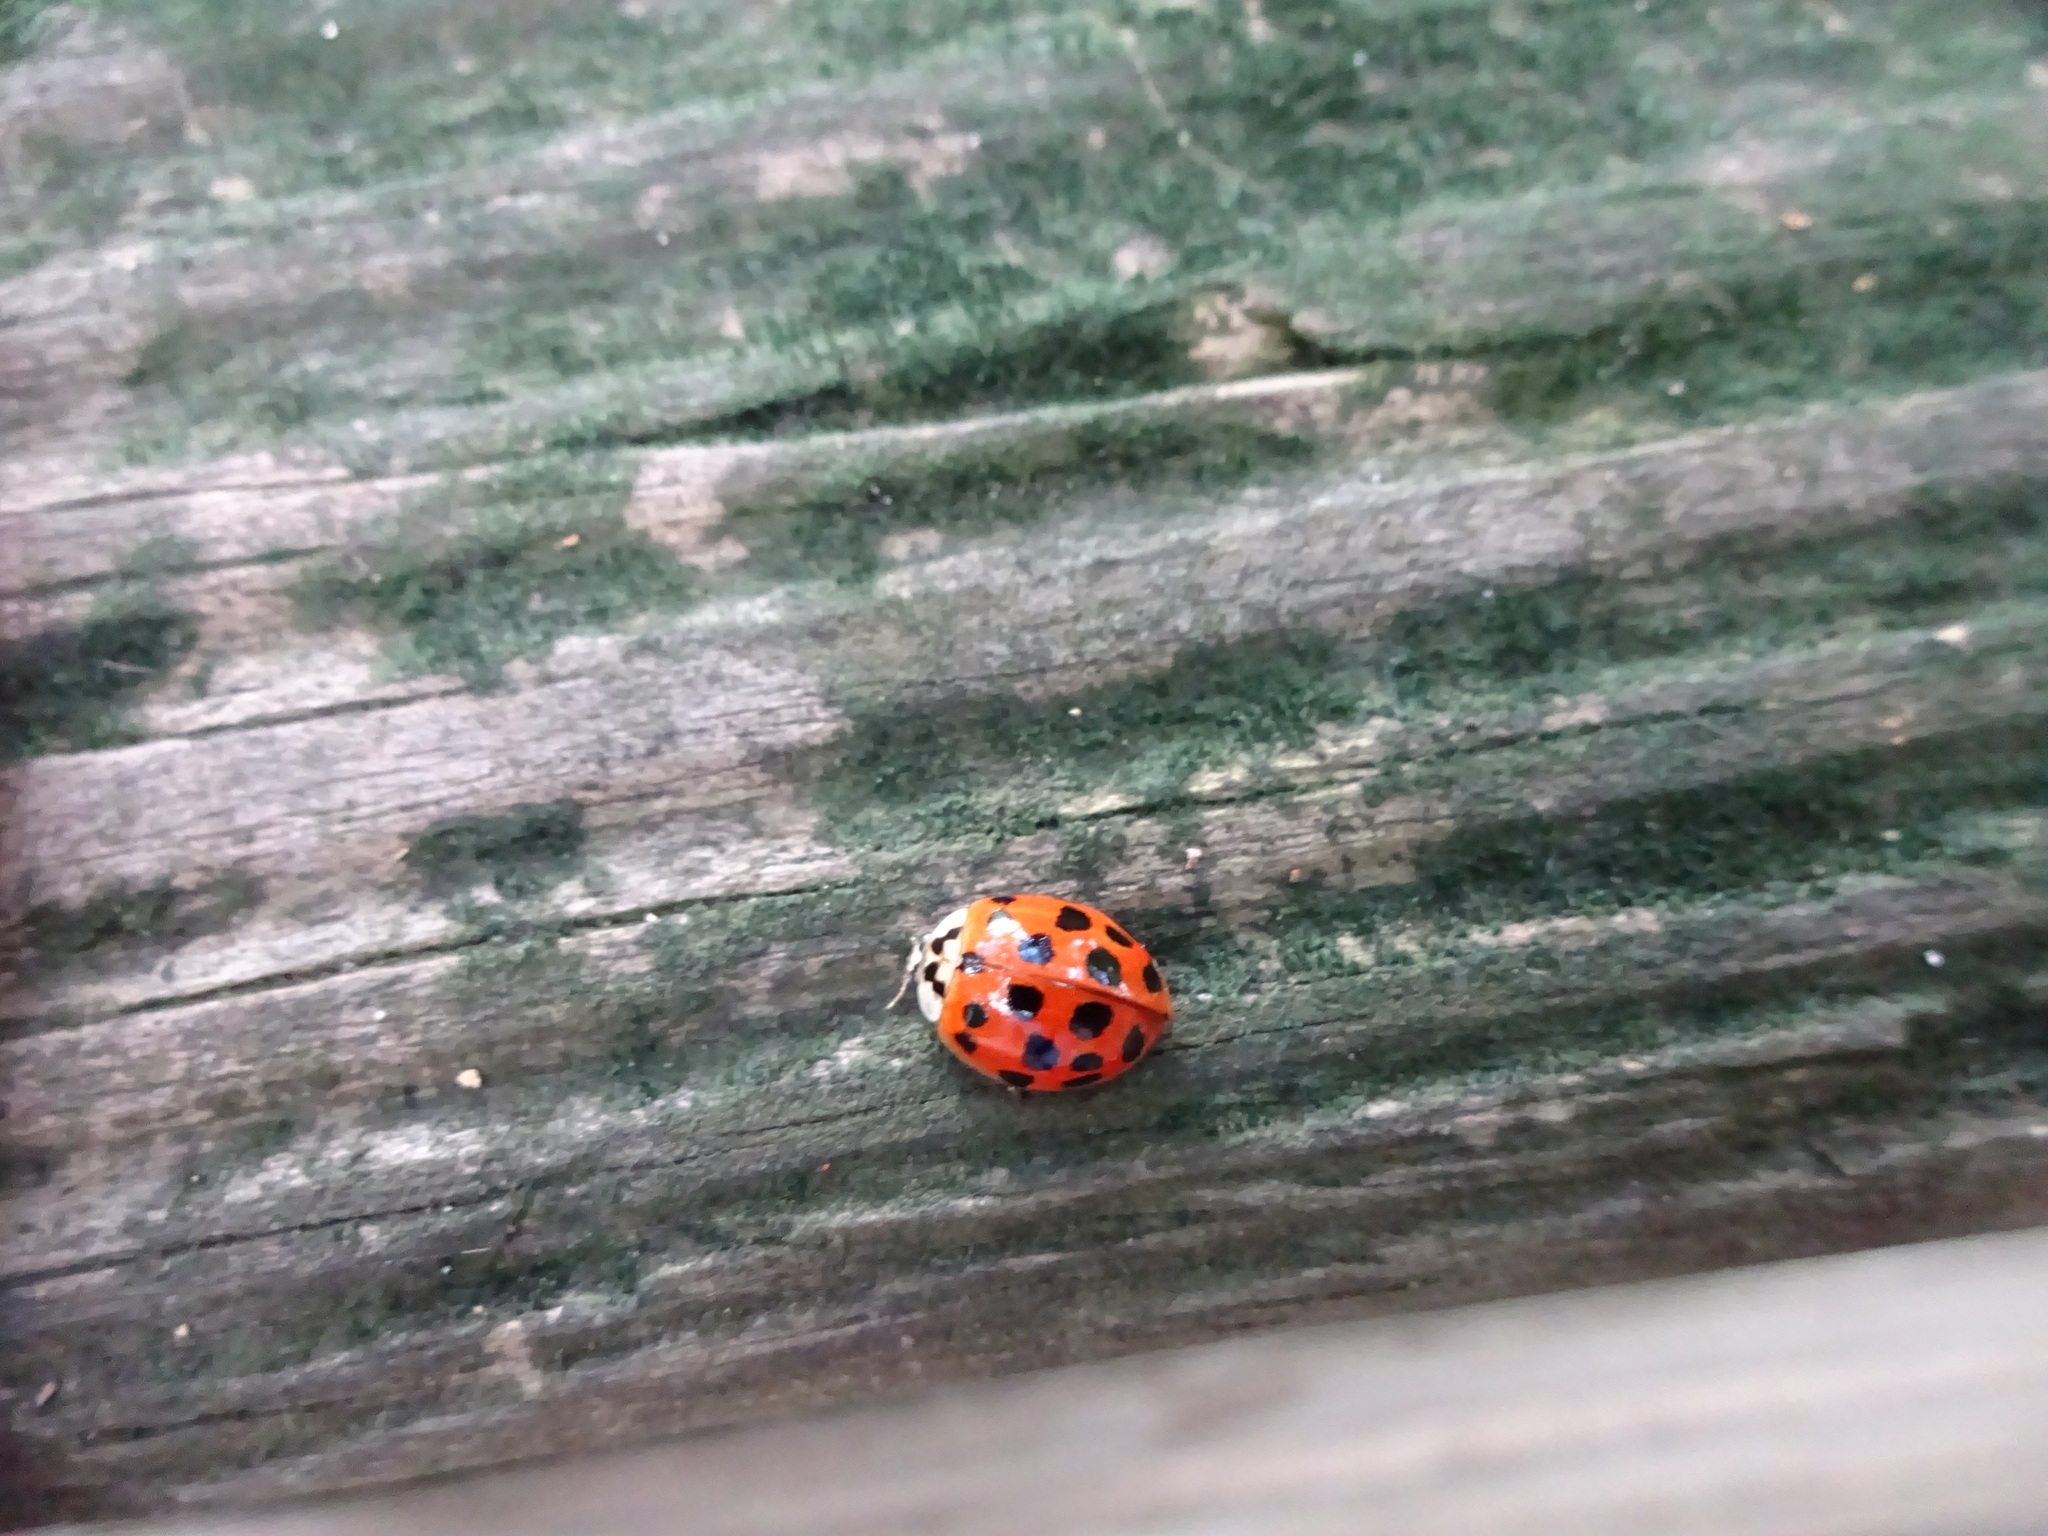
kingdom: Animalia
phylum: Arthropoda
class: Insecta
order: Coleoptera
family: Coccinellidae
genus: Harmonia
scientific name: Harmonia axyridis
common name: Harlequin ladybird
